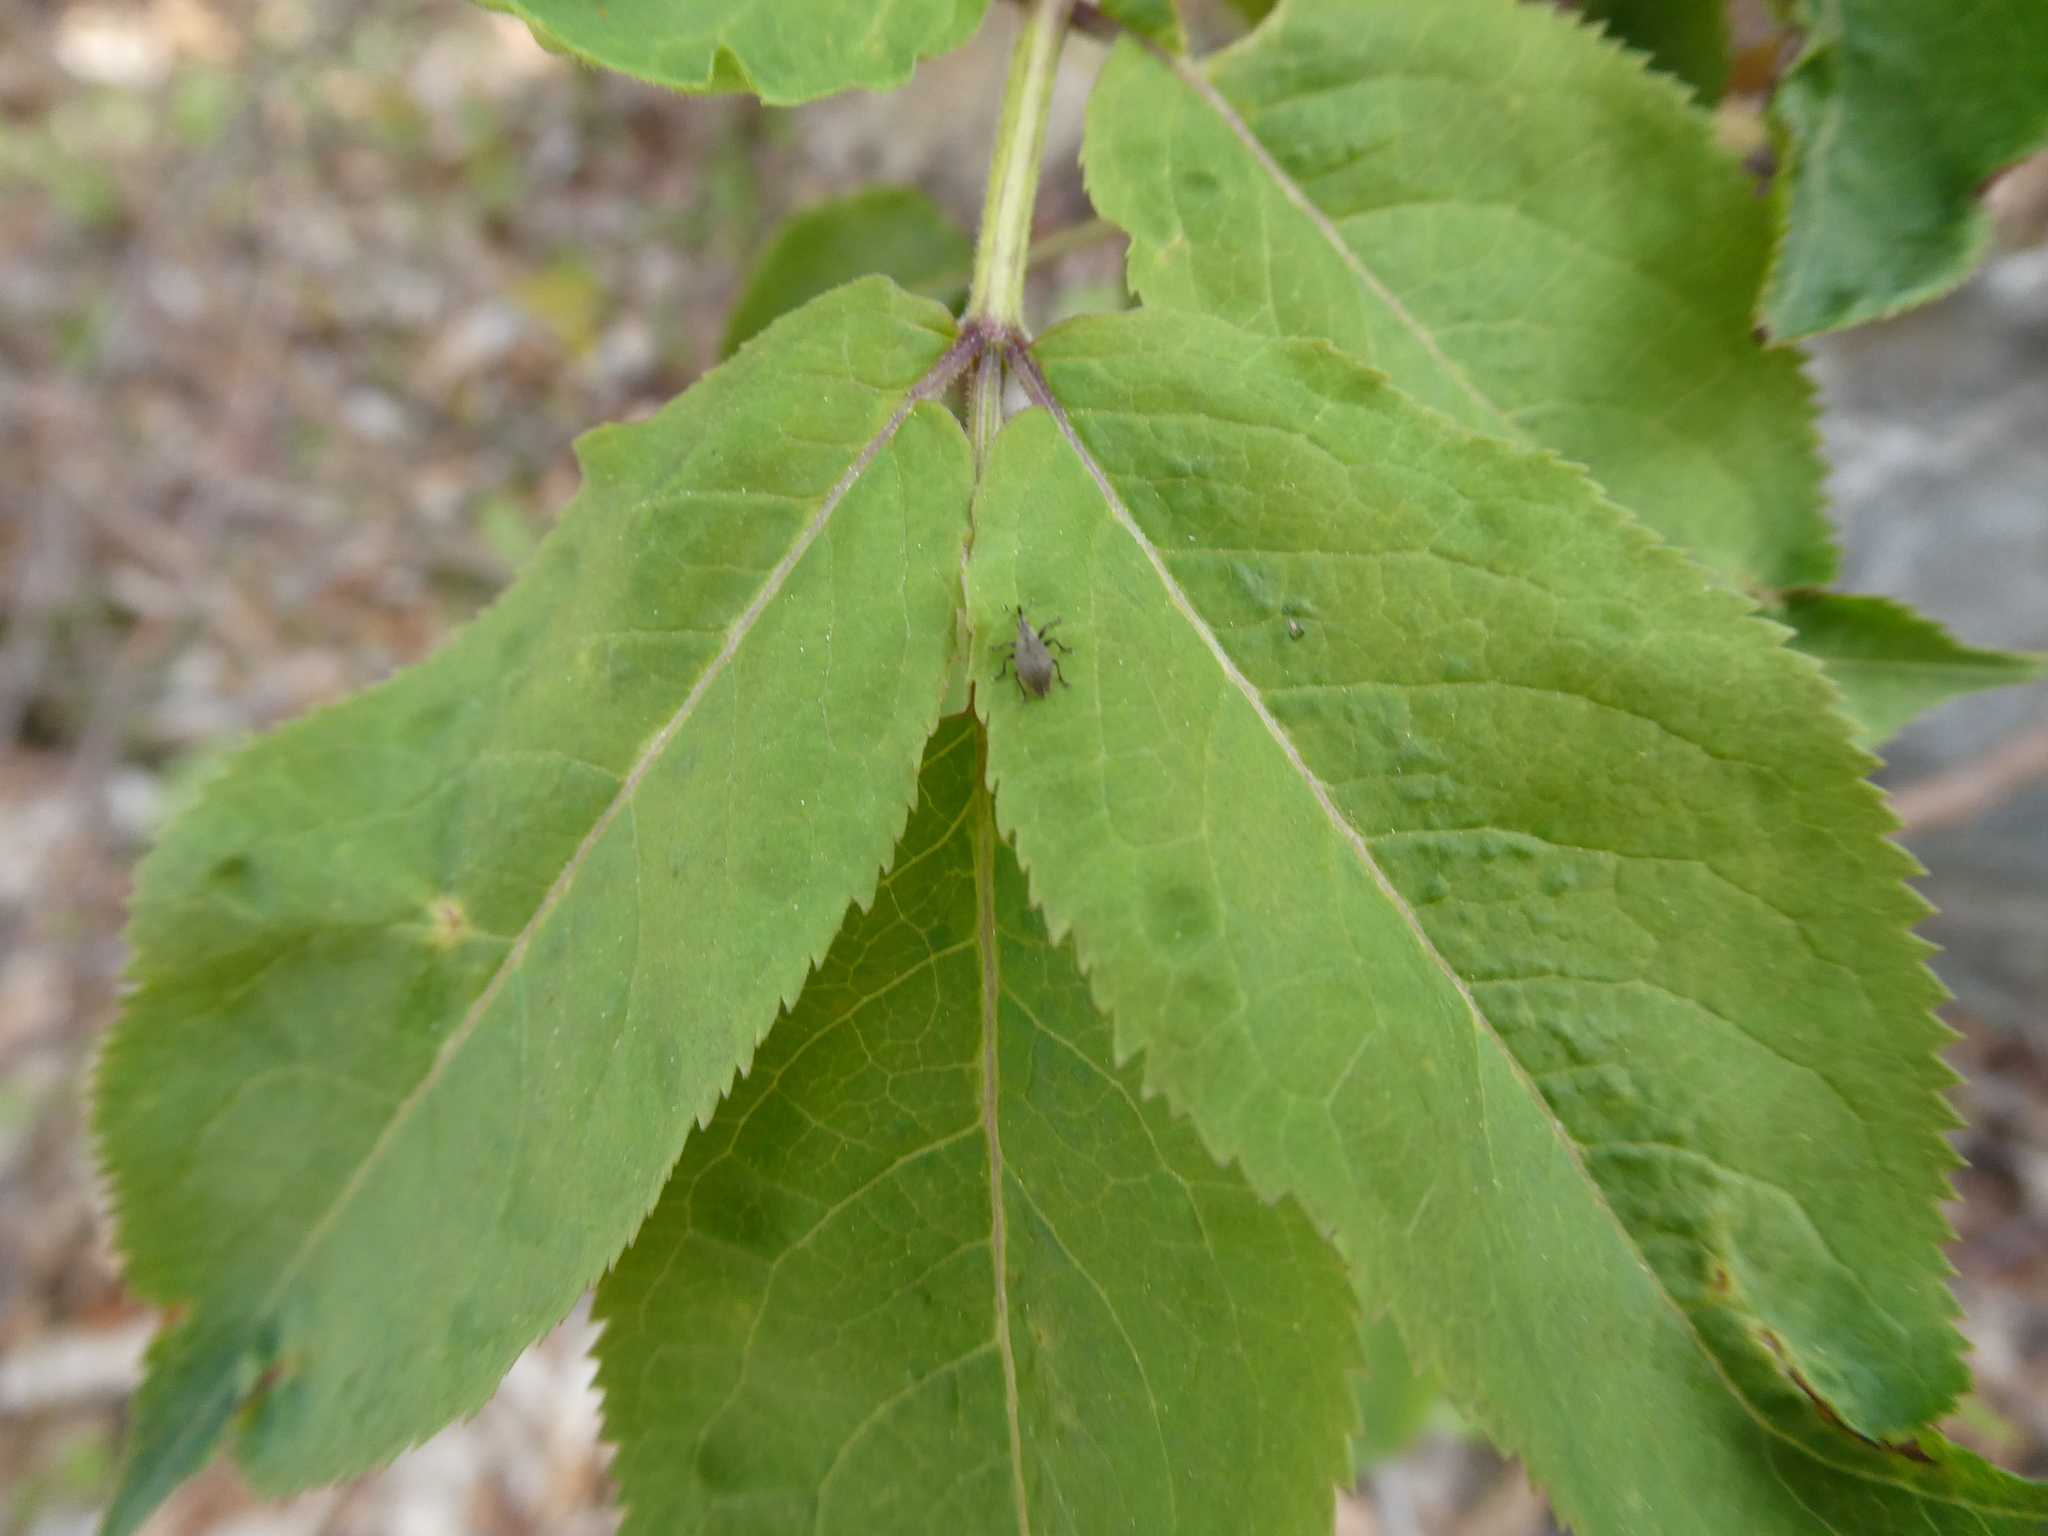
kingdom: Plantae
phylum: Tracheophyta
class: Magnoliopsida
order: Dipsacales
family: Viburnaceae
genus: Sambucus
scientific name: Sambucus racemosa
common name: Red-berried elder
